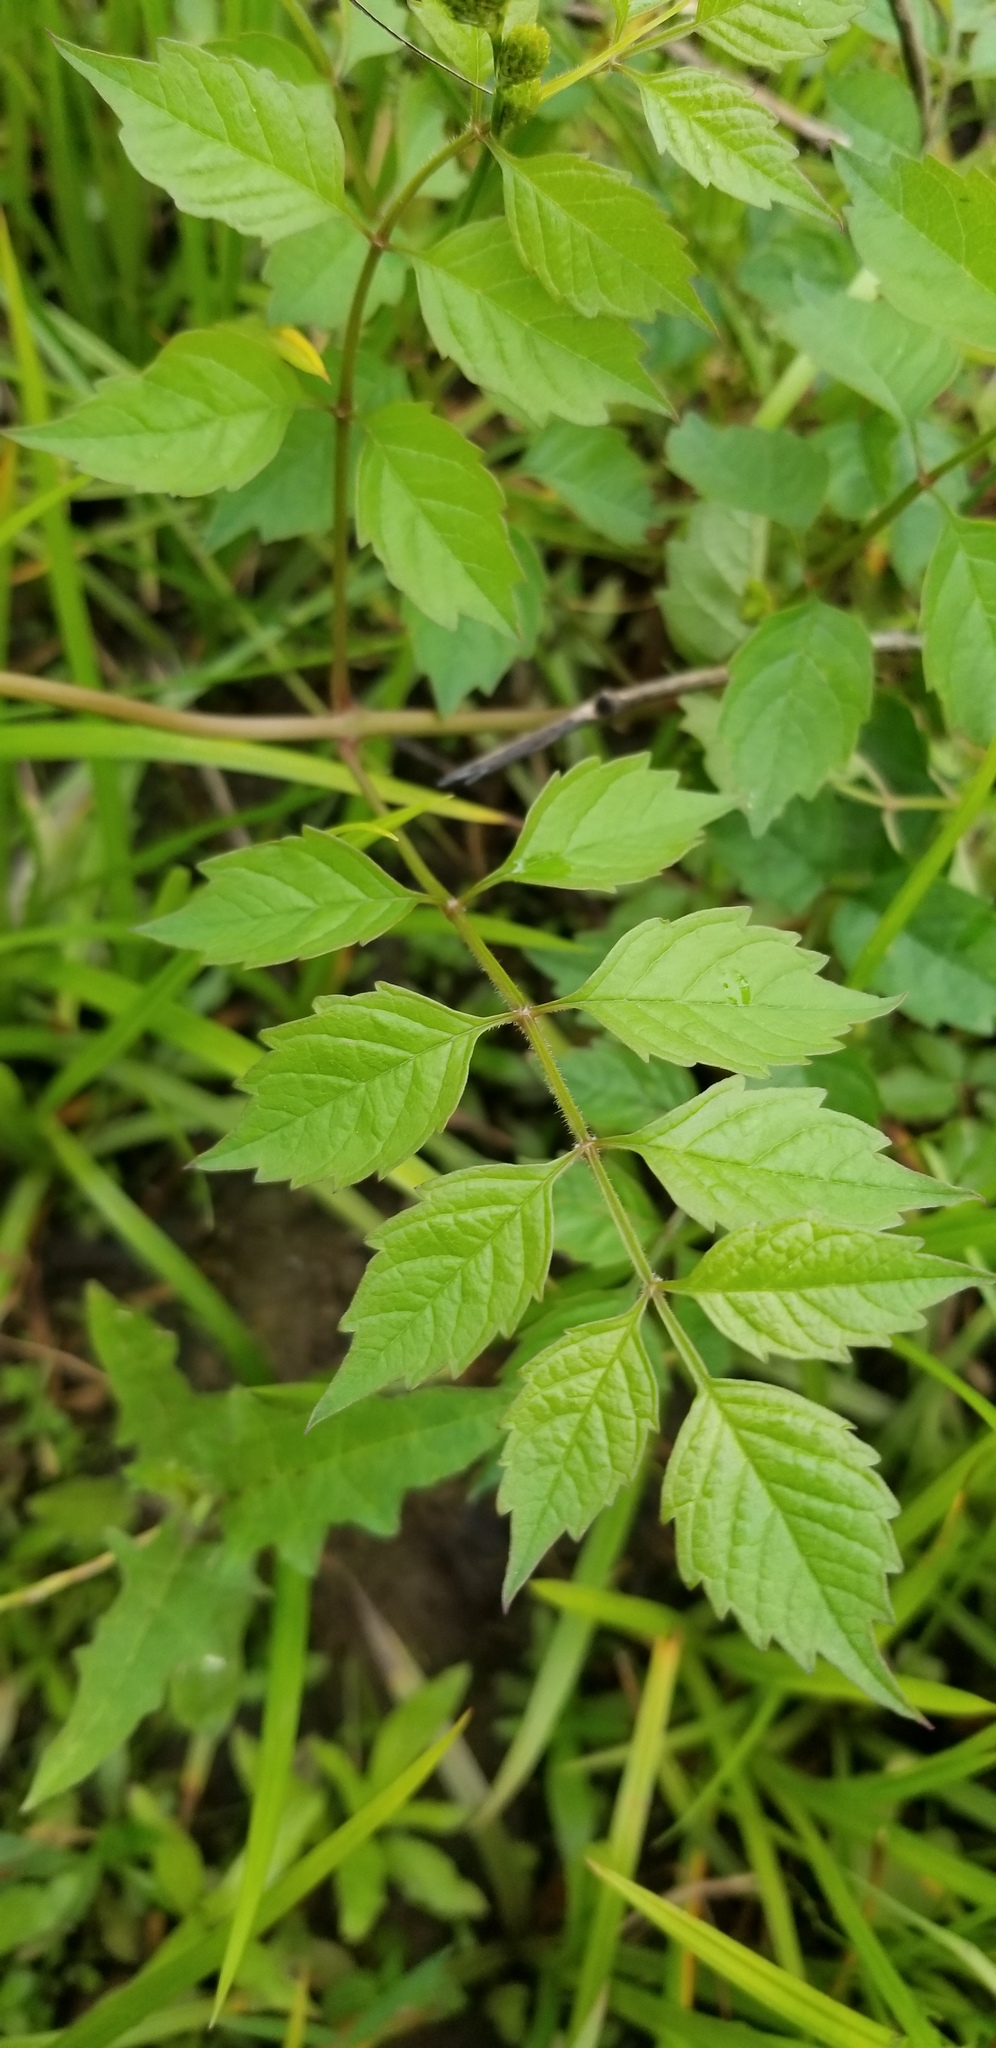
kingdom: Plantae
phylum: Tracheophyta
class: Magnoliopsida
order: Lamiales
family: Bignoniaceae
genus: Campsis
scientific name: Campsis radicans
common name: Trumpet-creeper
